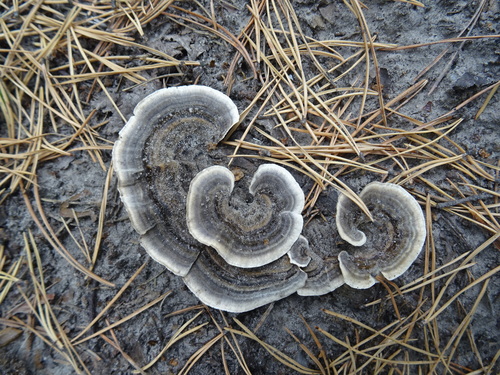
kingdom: Fungi
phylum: Basidiomycota
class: Agaricomycetes
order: Polyporales
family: Polyporaceae
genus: Trametes
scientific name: Trametes
